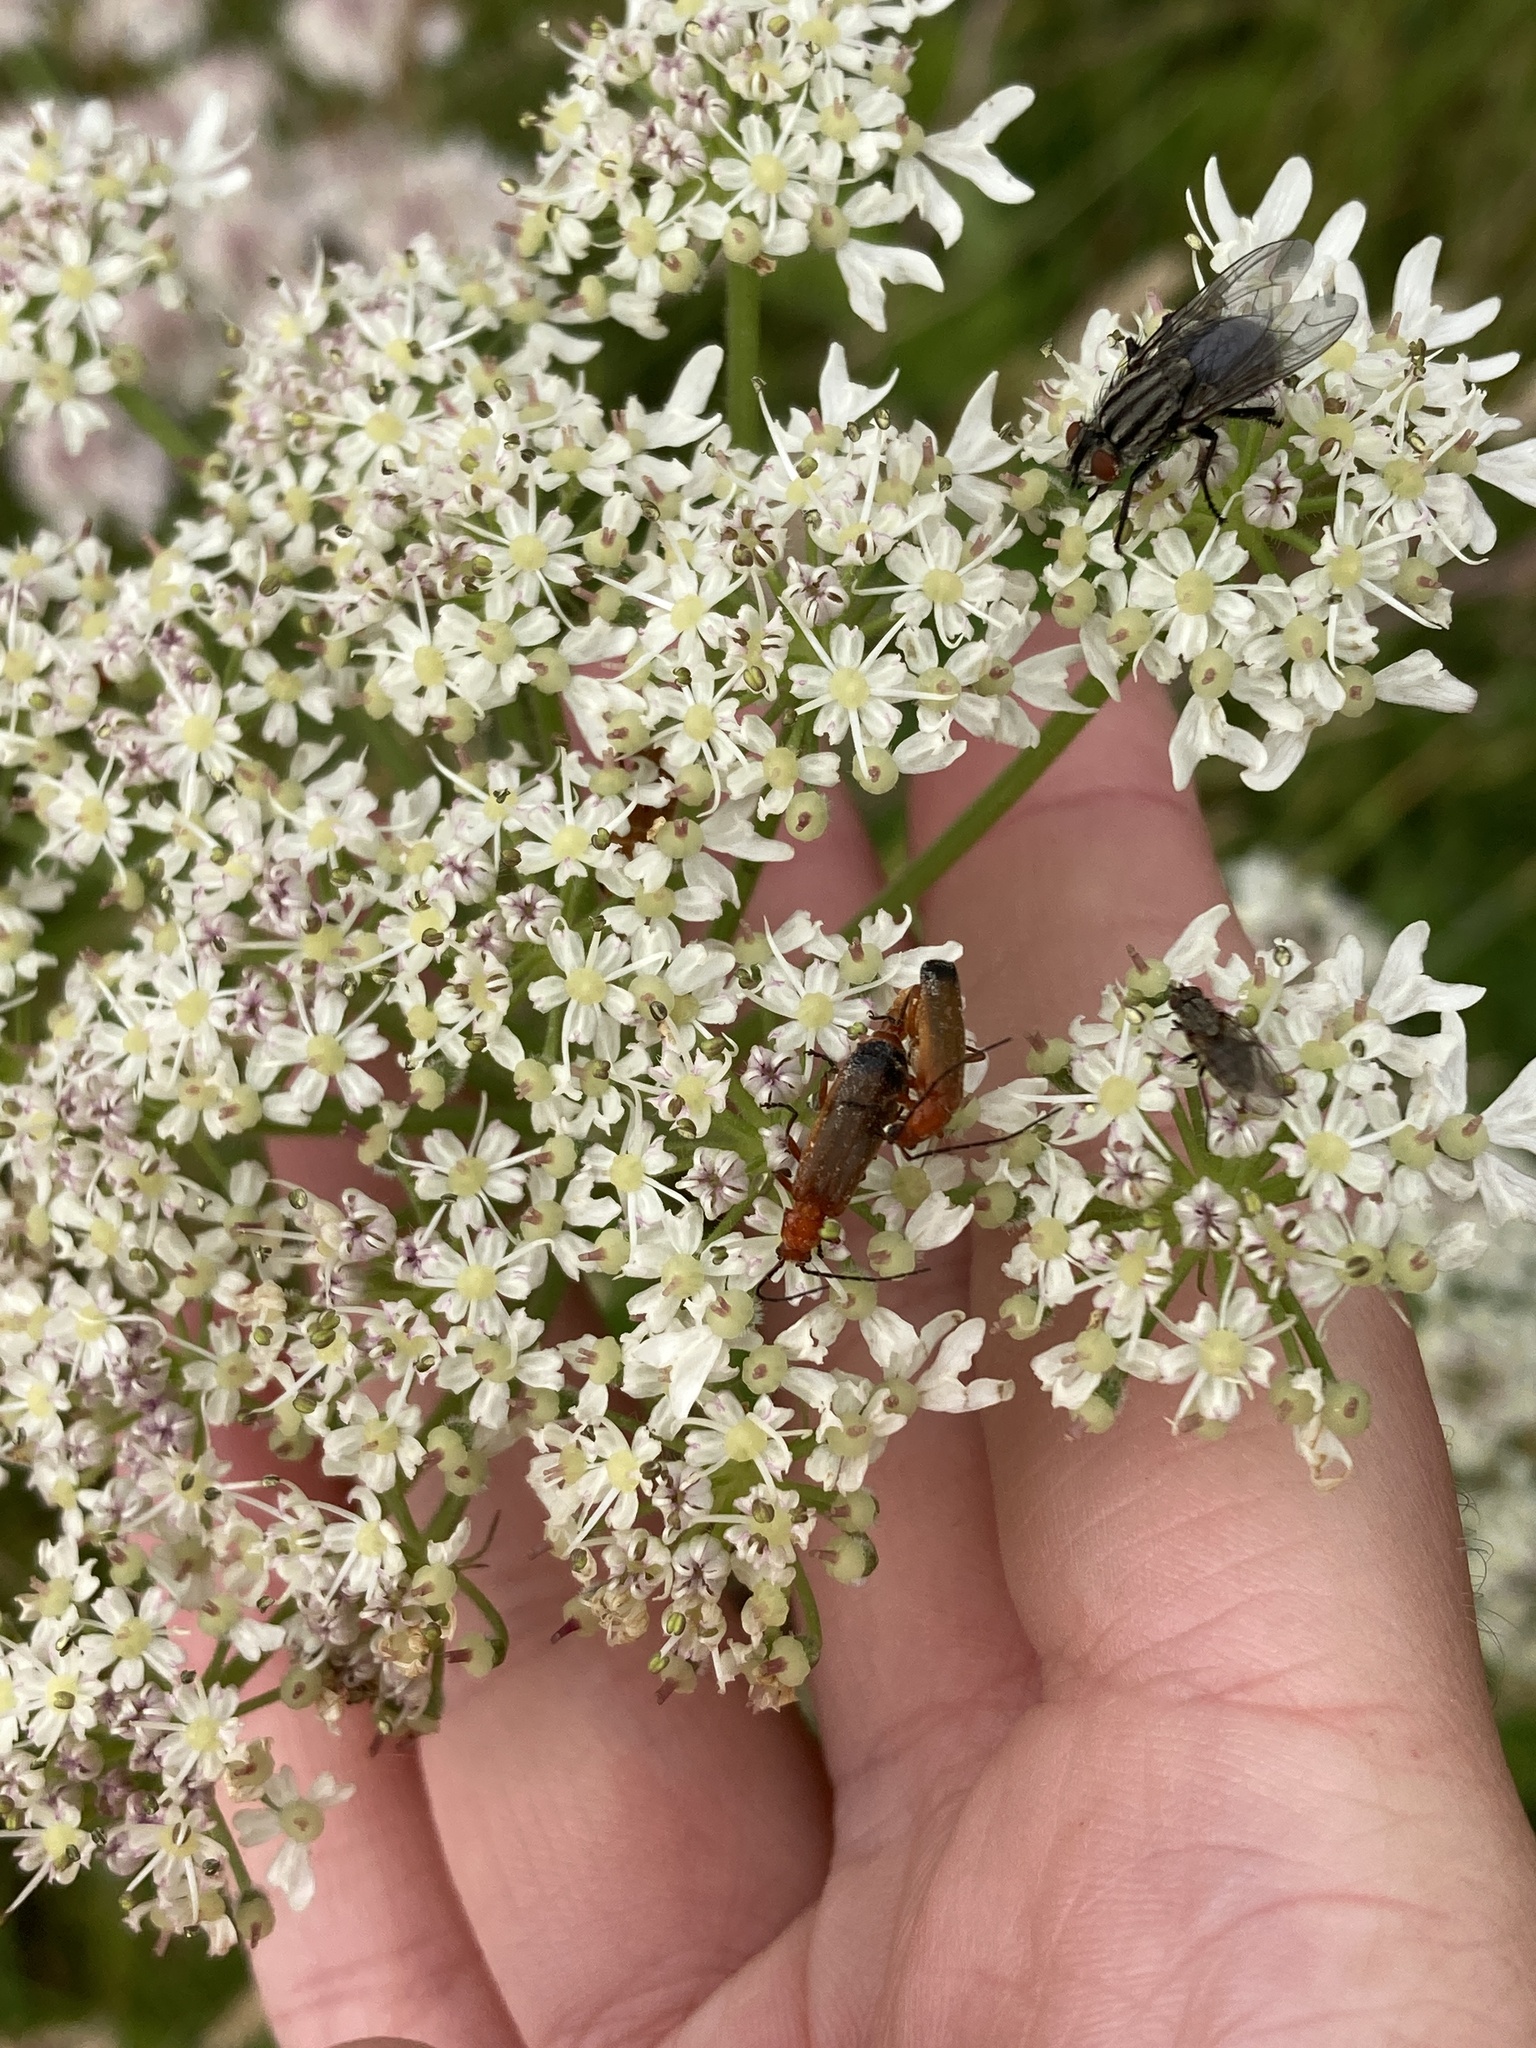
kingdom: Animalia
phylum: Arthropoda
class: Insecta
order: Coleoptera
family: Cantharidae
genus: Rhagonycha
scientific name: Rhagonycha fulva
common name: Common red soldier beetle
